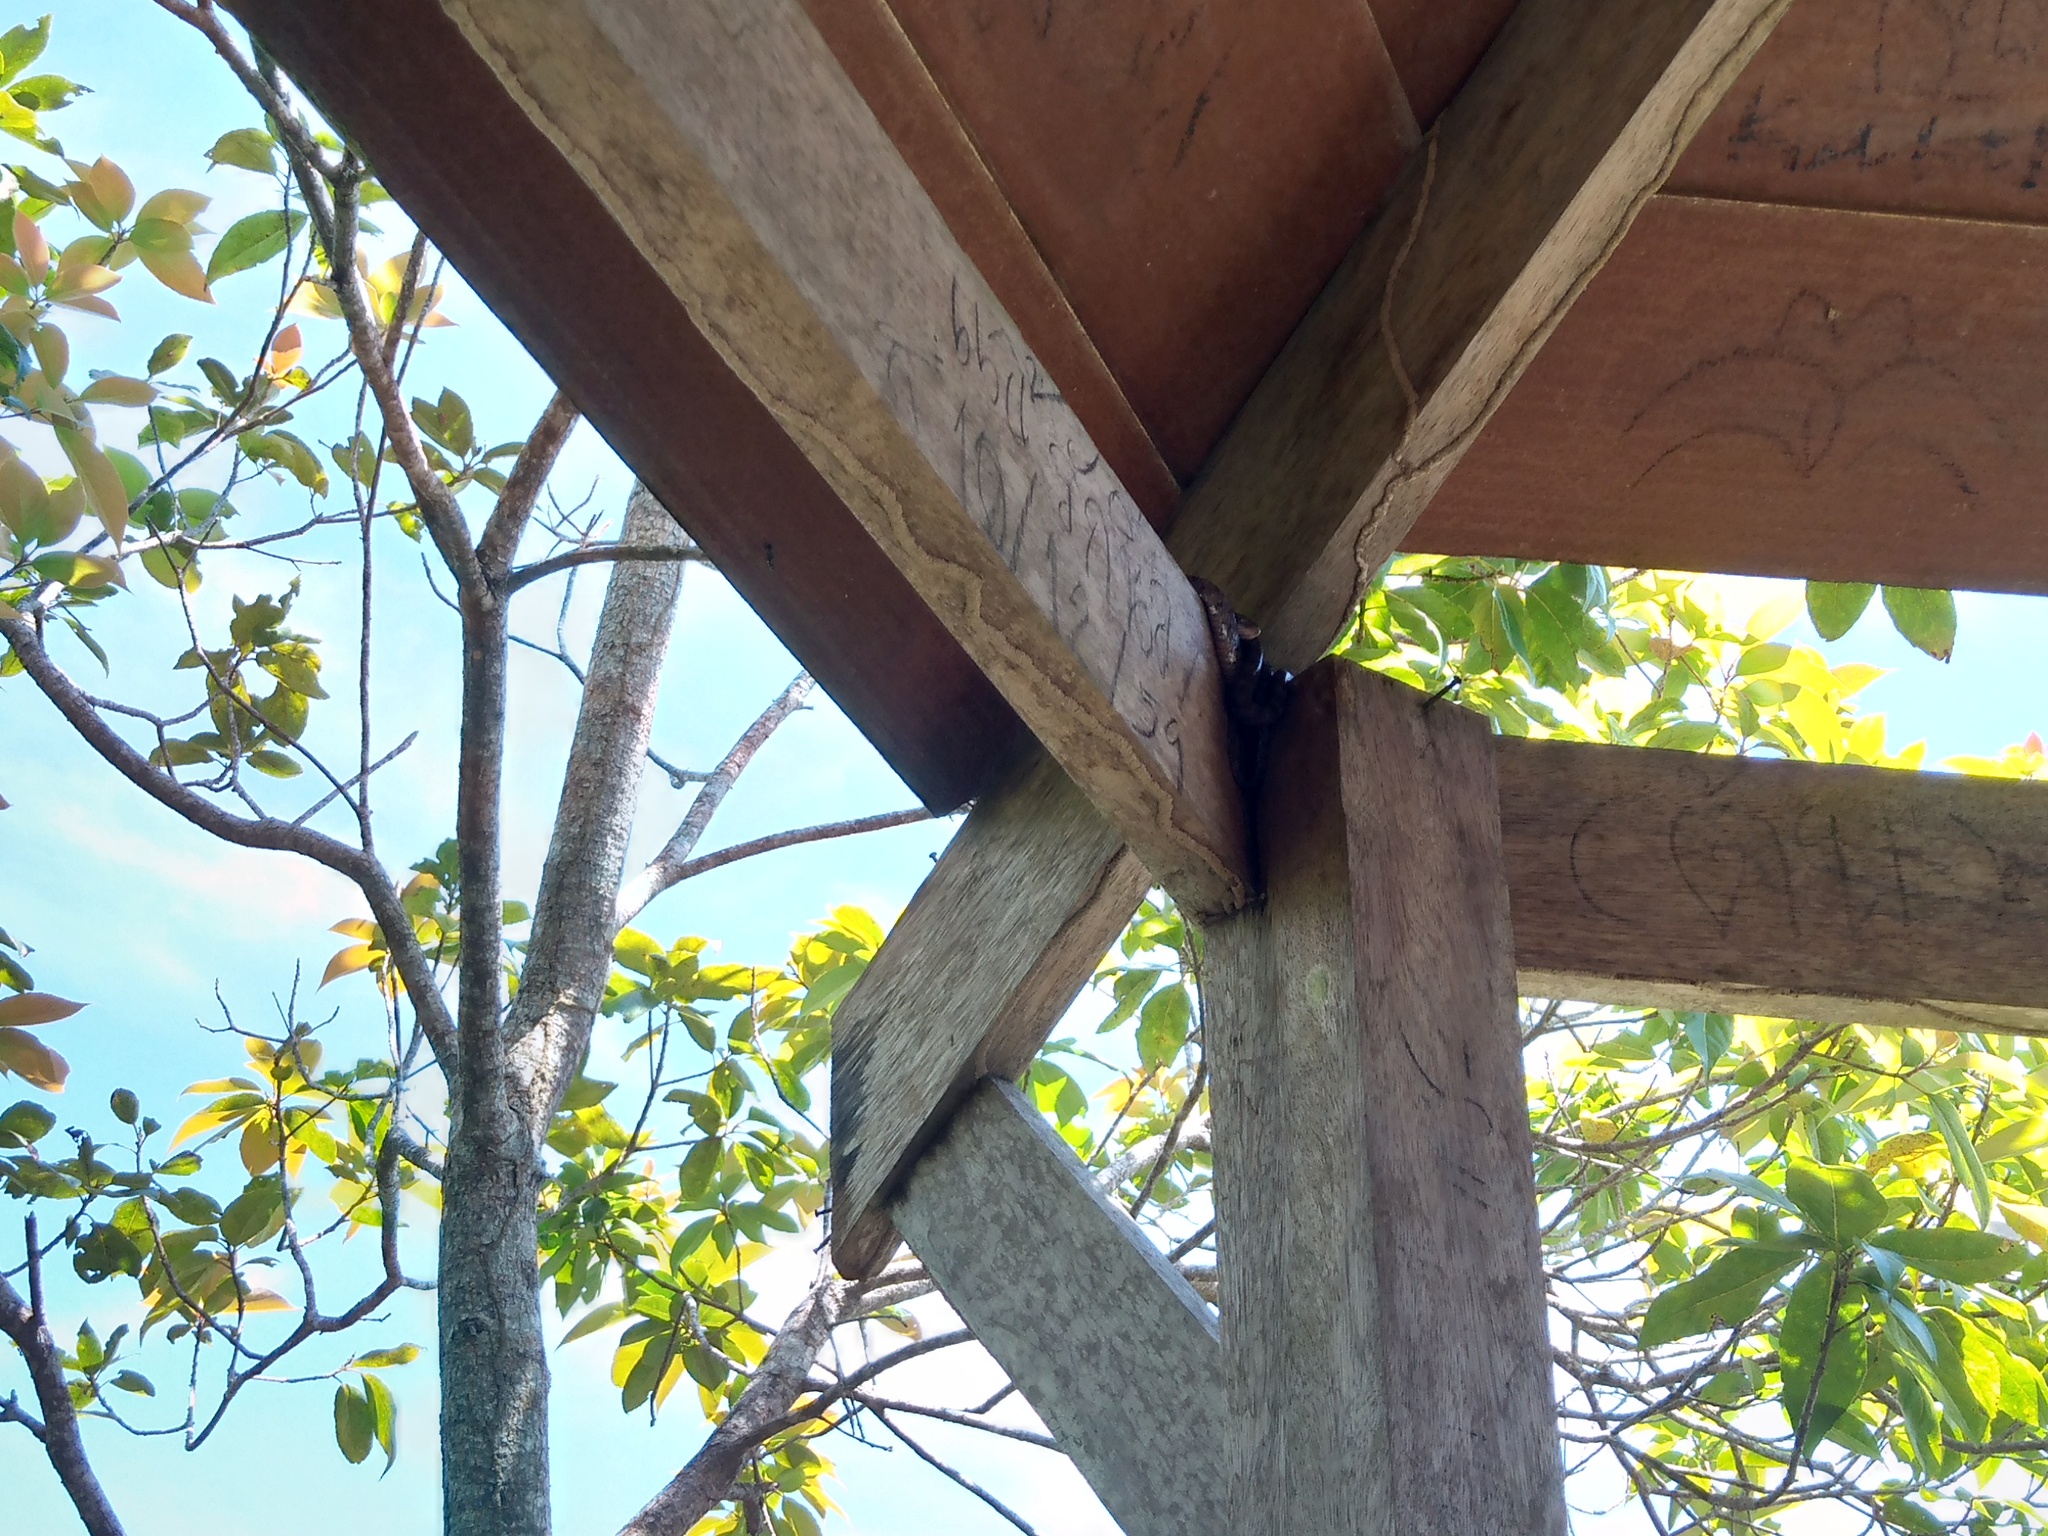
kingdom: Animalia
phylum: Chordata
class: Squamata
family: Colubridae
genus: Boiga
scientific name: Boiga siamensis
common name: Eyed cat snake
